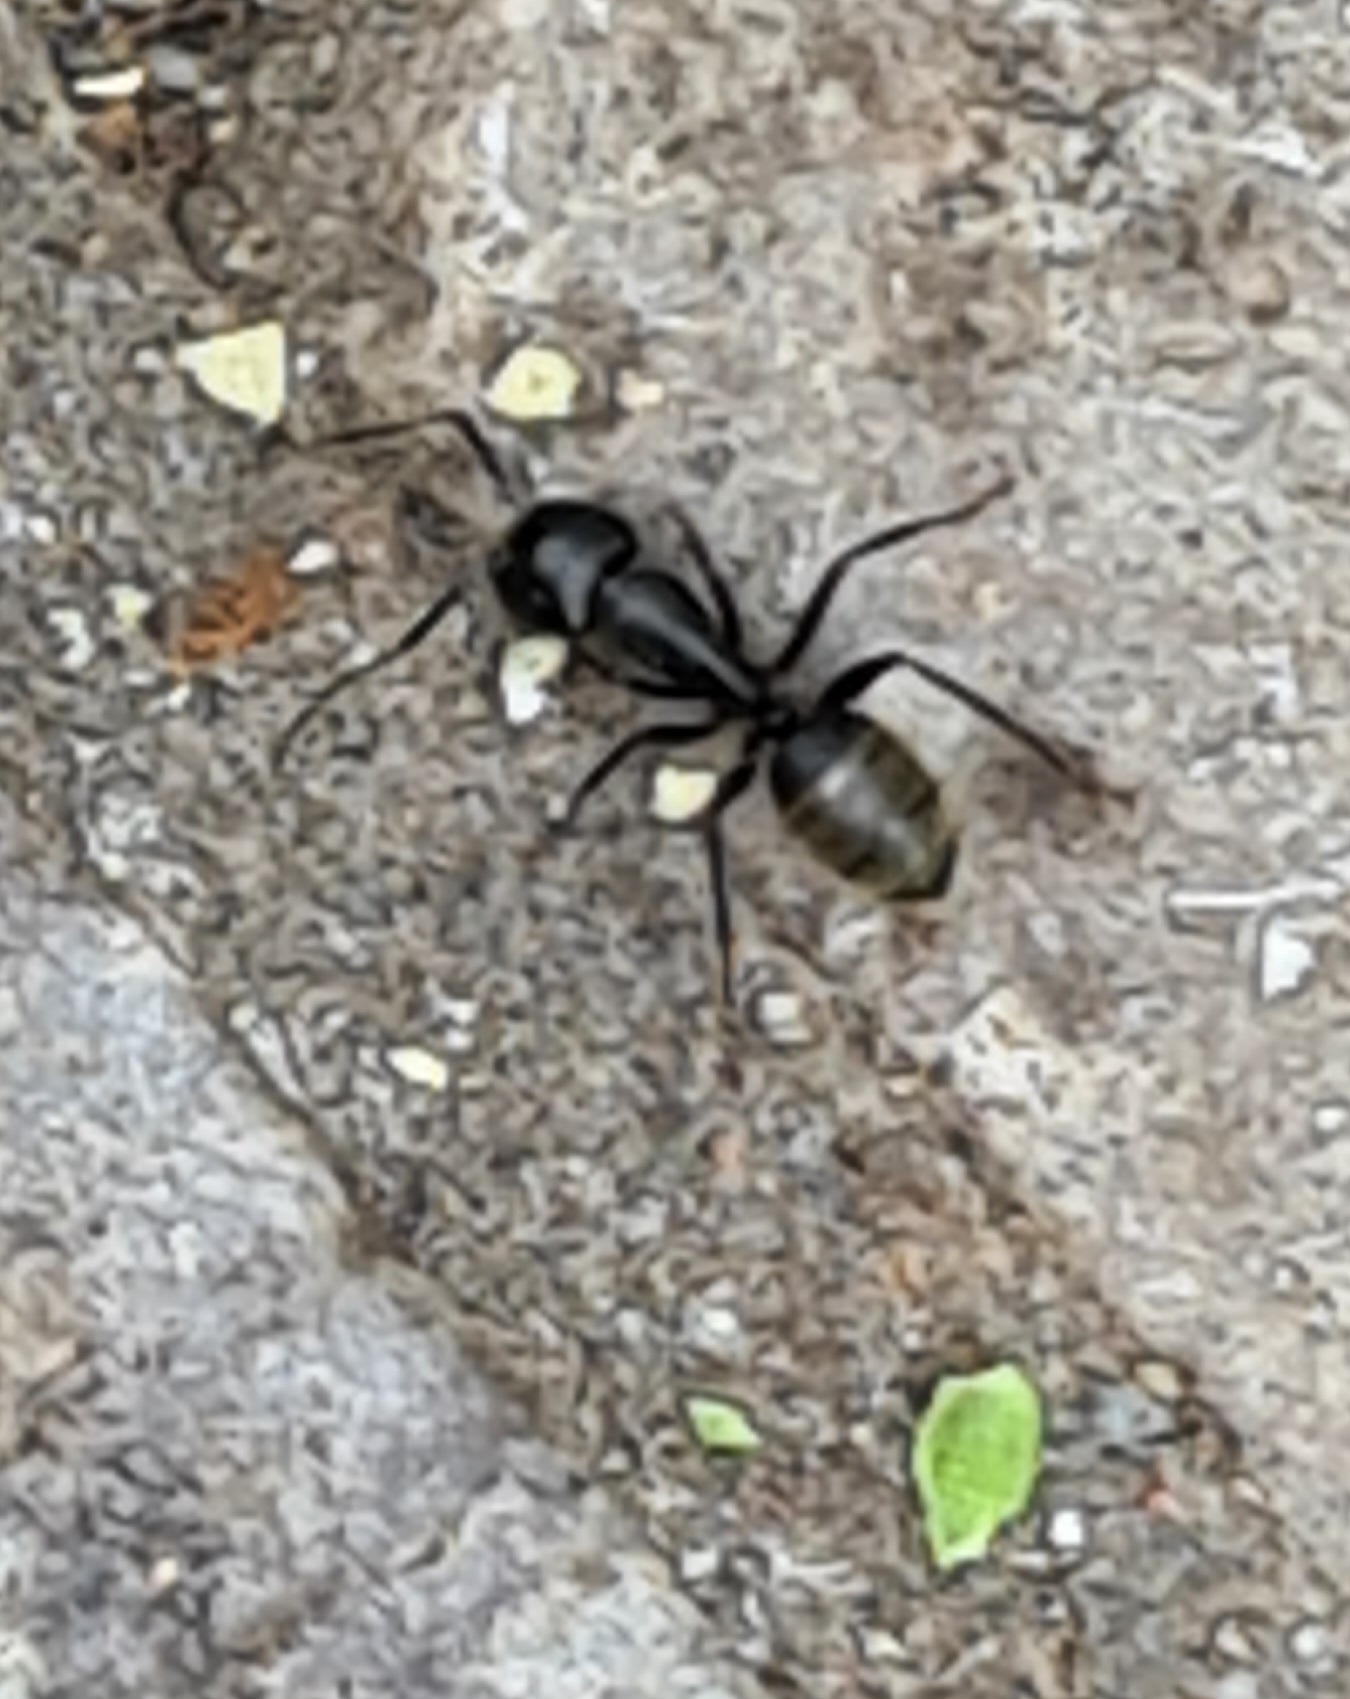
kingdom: Animalia
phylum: Arthropoda
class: Insecta
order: Hymenoptera
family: Formicidae
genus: Camponotus
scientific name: Camponotus pennsylvanicus
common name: Black carpenter ant
